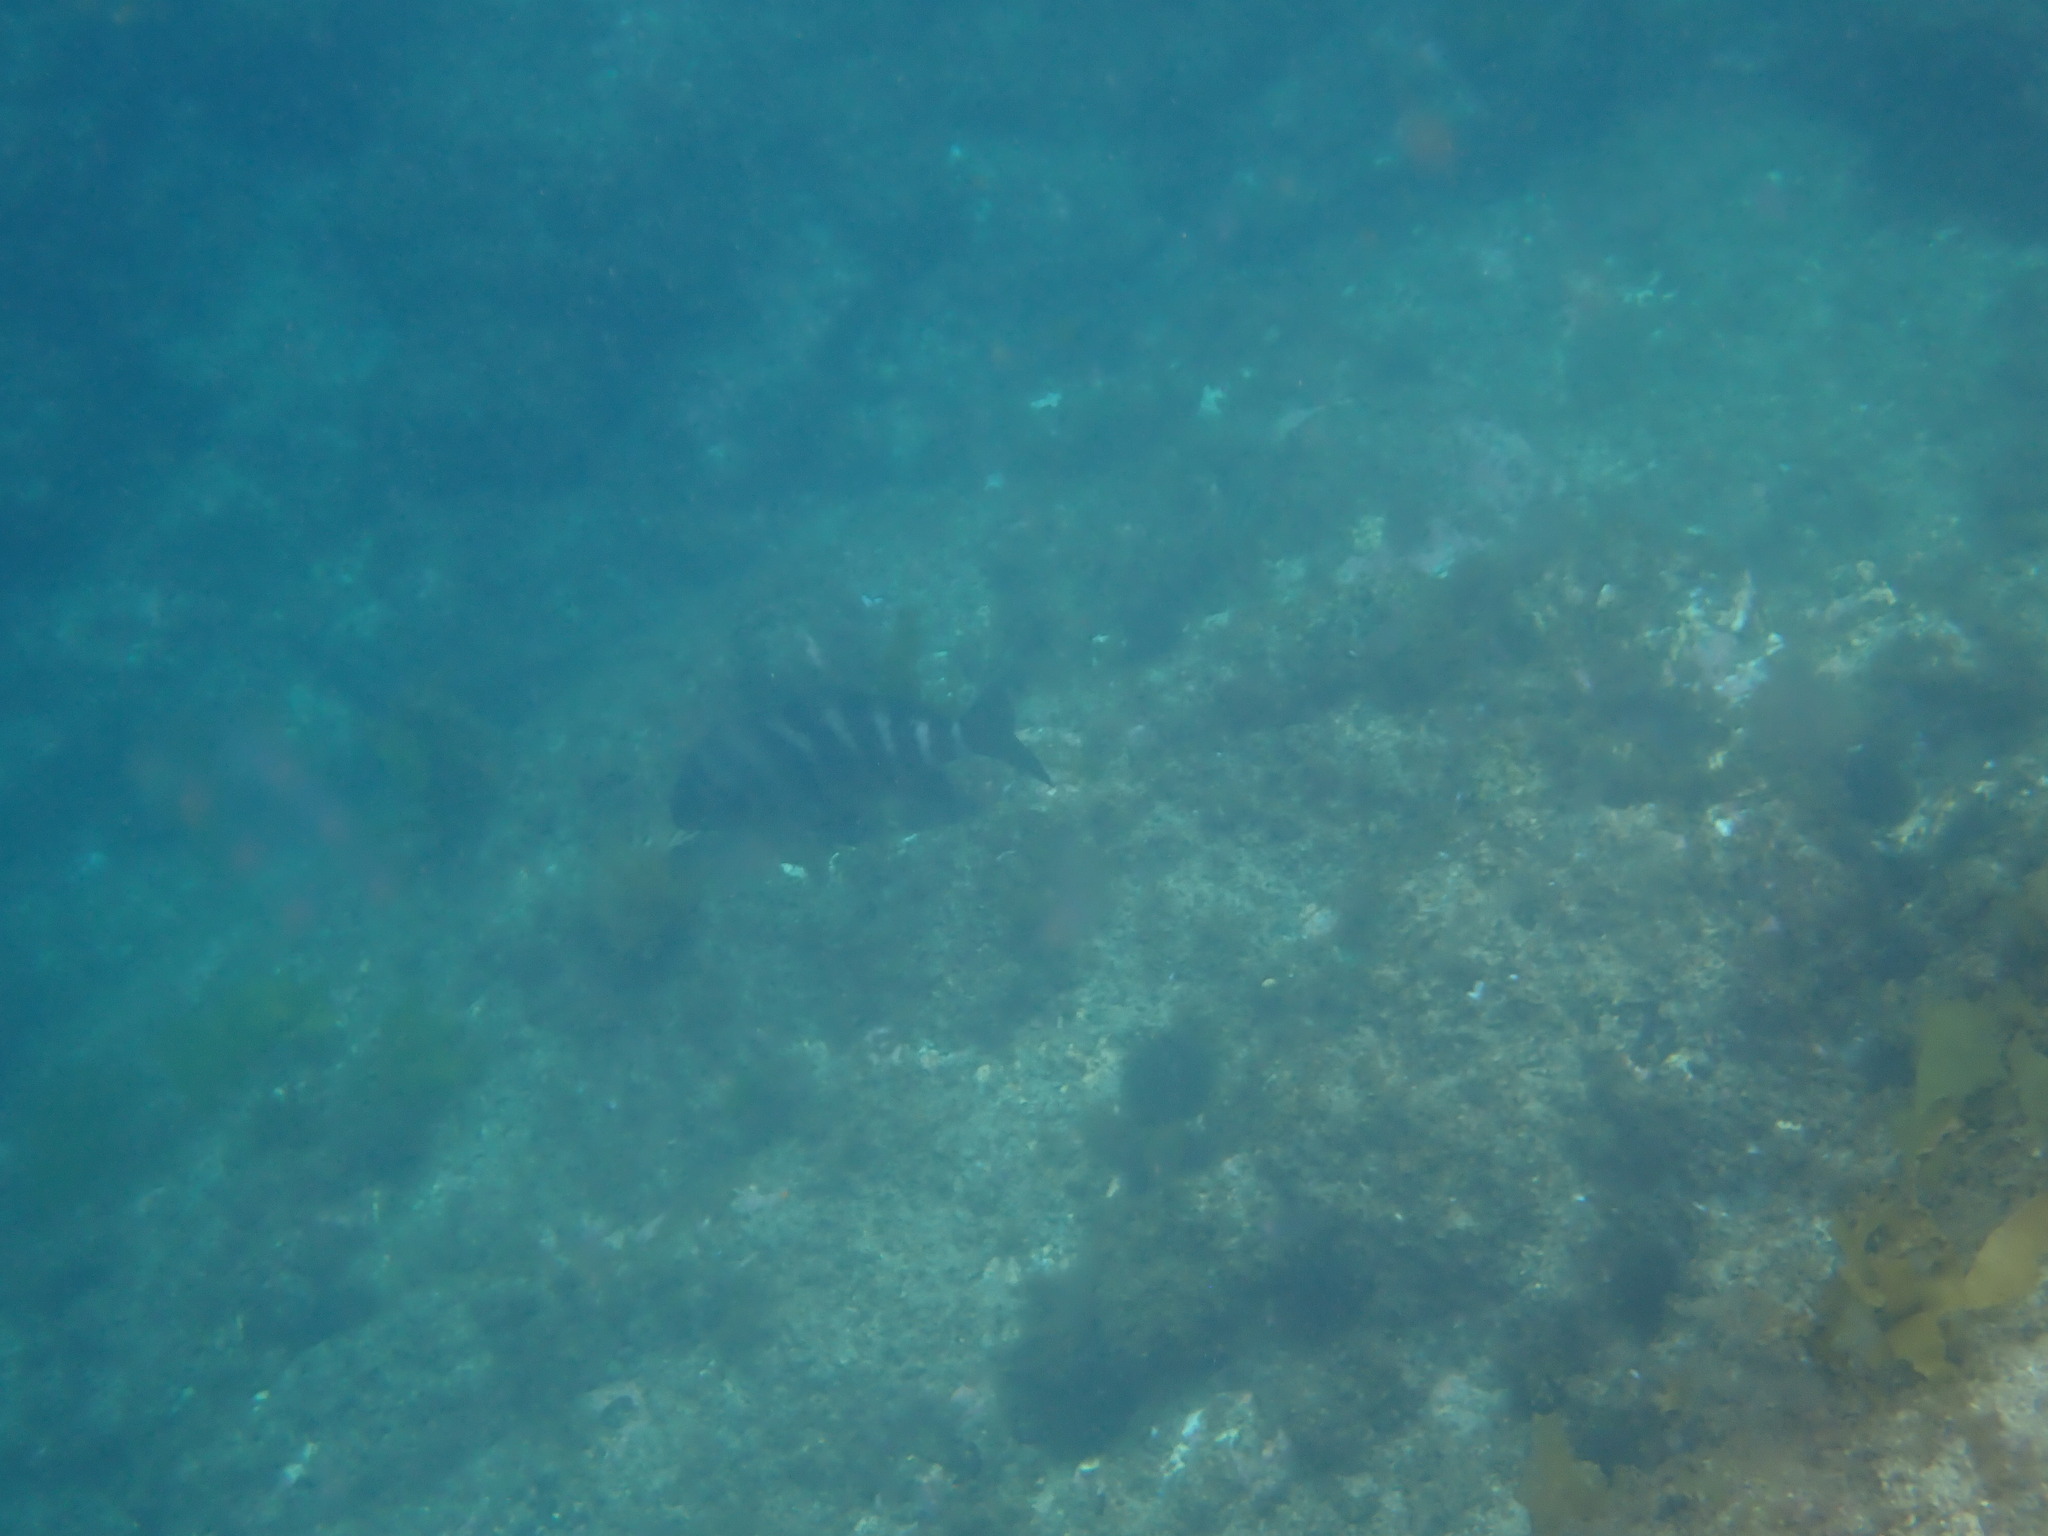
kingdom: Animalia
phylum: Chordata
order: Perciformes
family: Cheilodactylidae
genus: Cheilodactylus
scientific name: Cheilodactylus spectabilis
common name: Red moki
